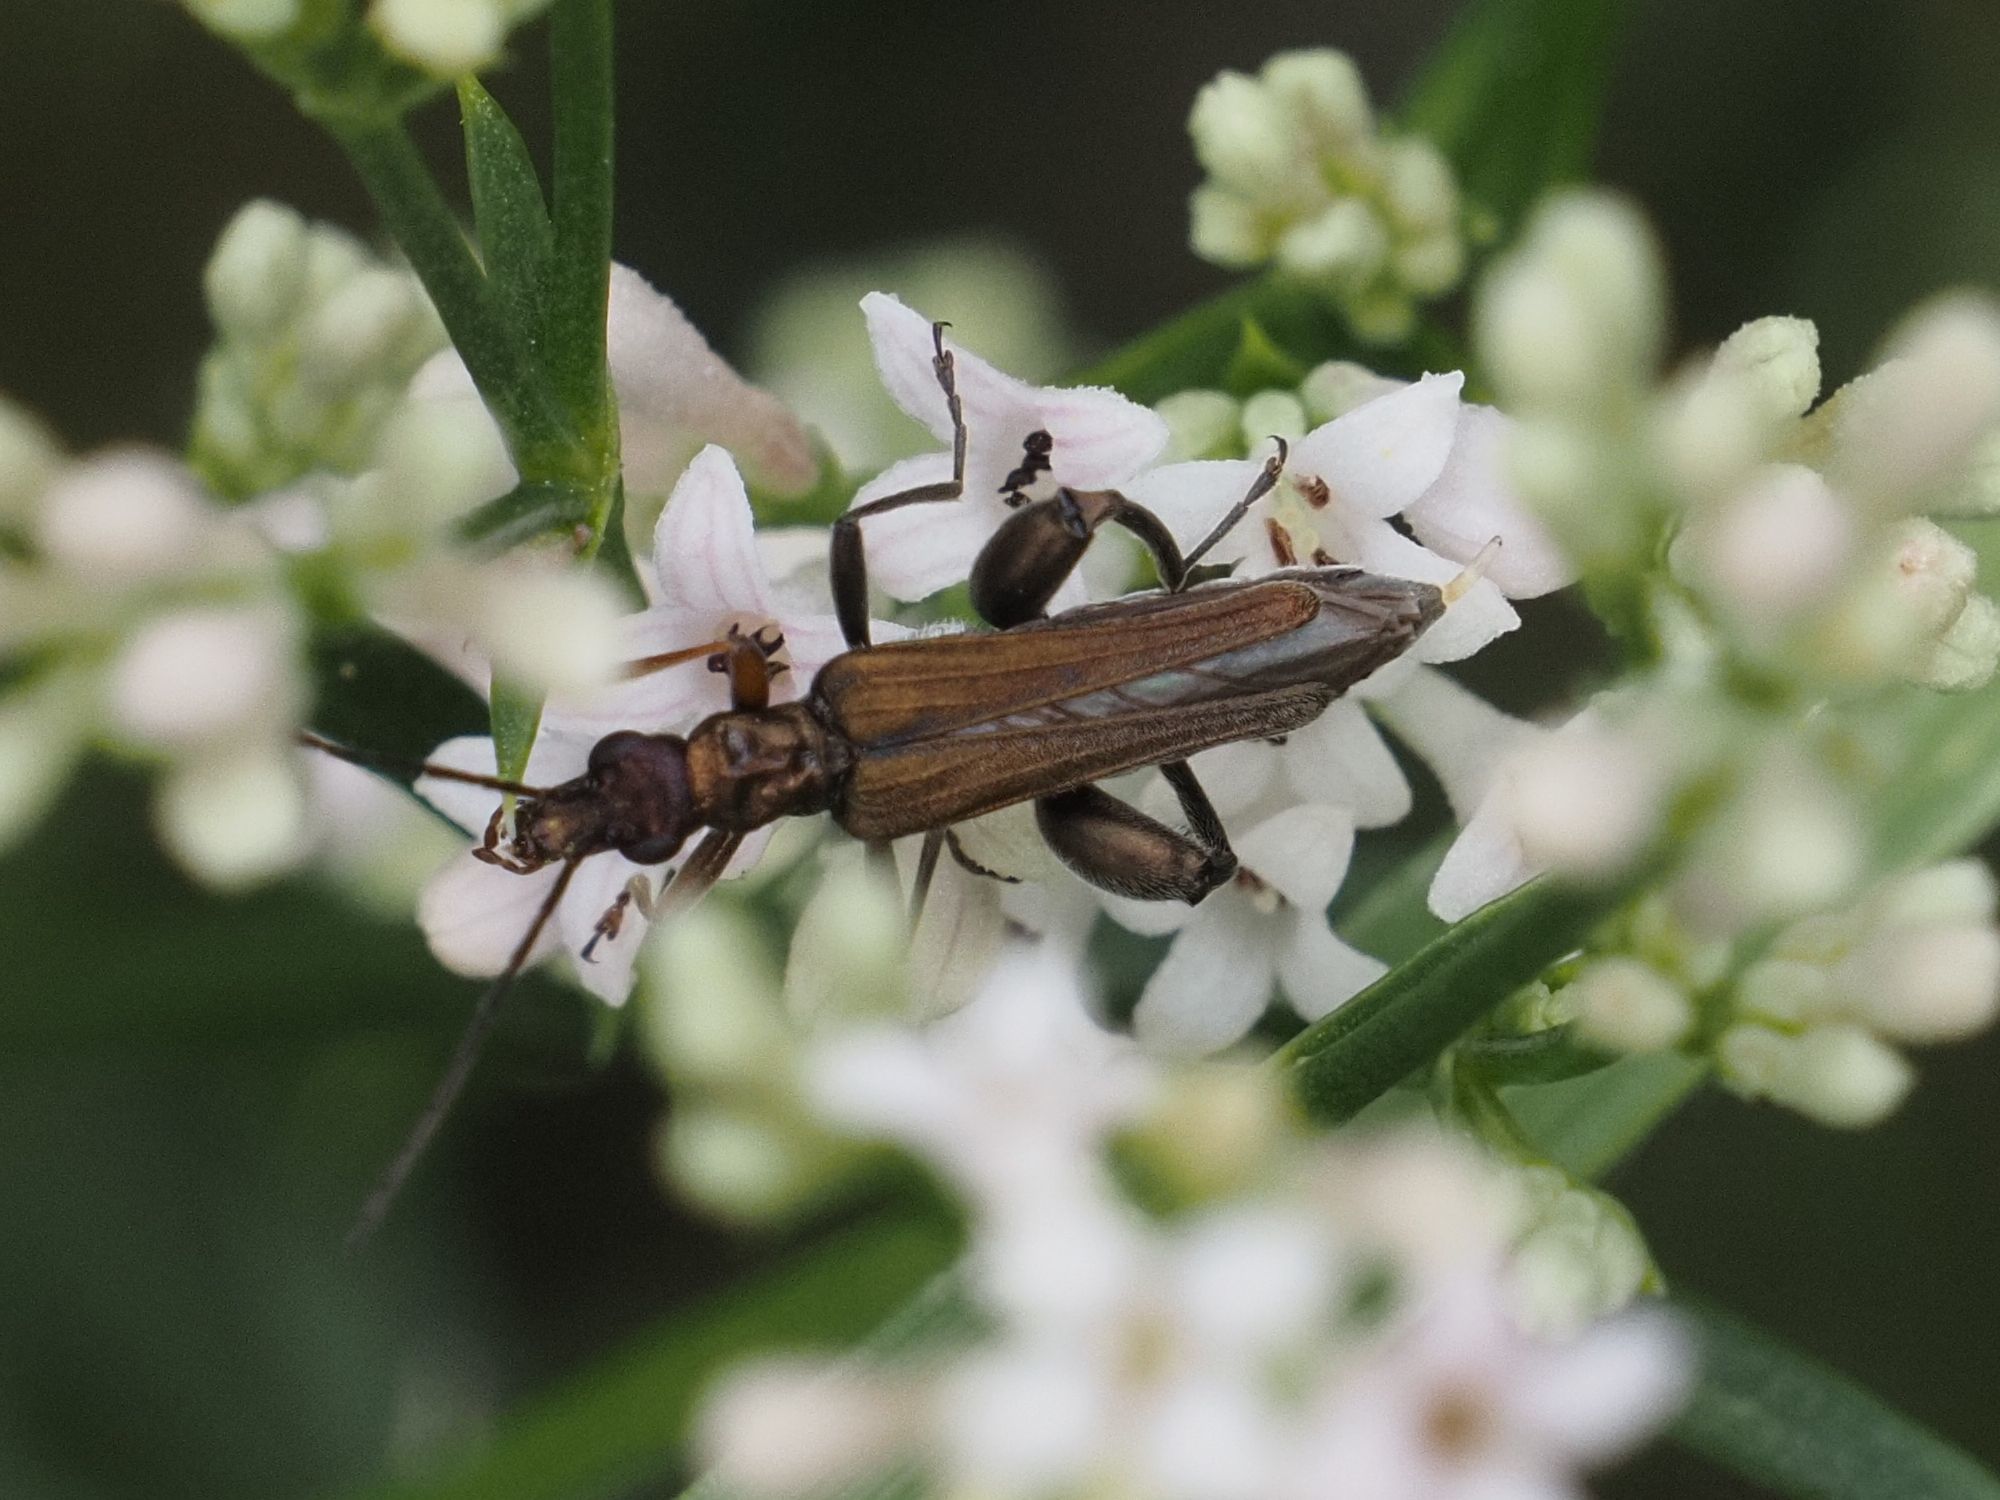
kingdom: Animalia
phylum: Arthropoda
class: Insecta
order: Coleoptera
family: Oedemeridae
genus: Oedemera
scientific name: Oedemera flavipes
